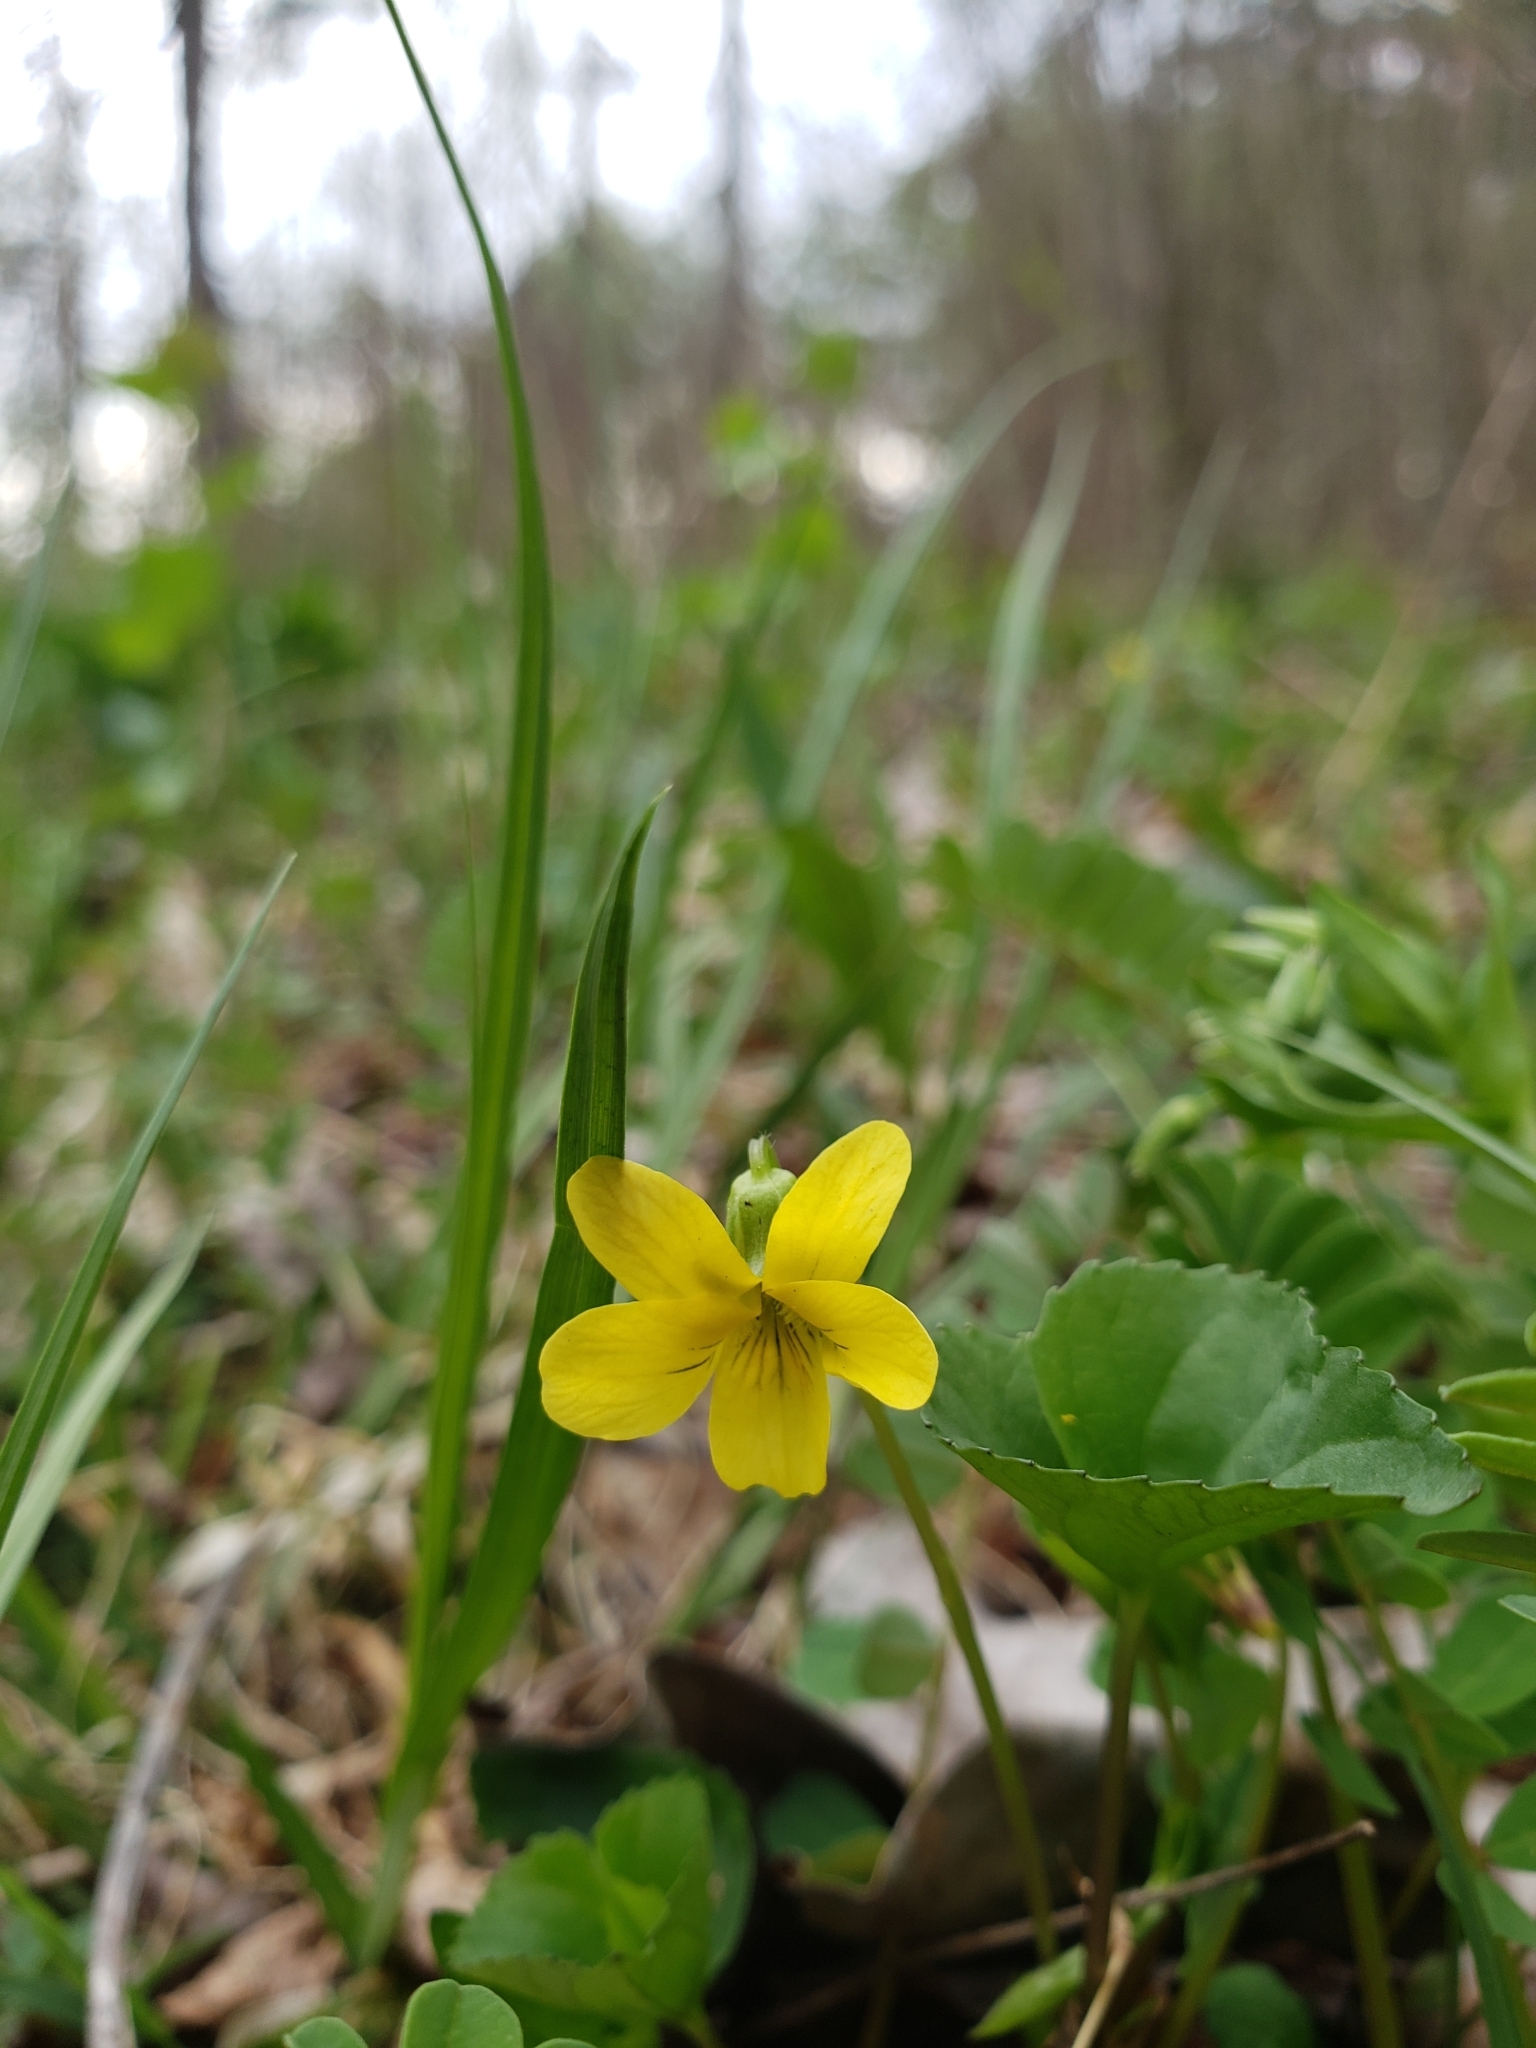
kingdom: Plantae
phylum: Tracheophyta
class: Magnoliopsida
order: Malpighiales
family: Violaceae
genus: Viola
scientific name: Viola eriocarpa
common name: Smooth yellow violet
